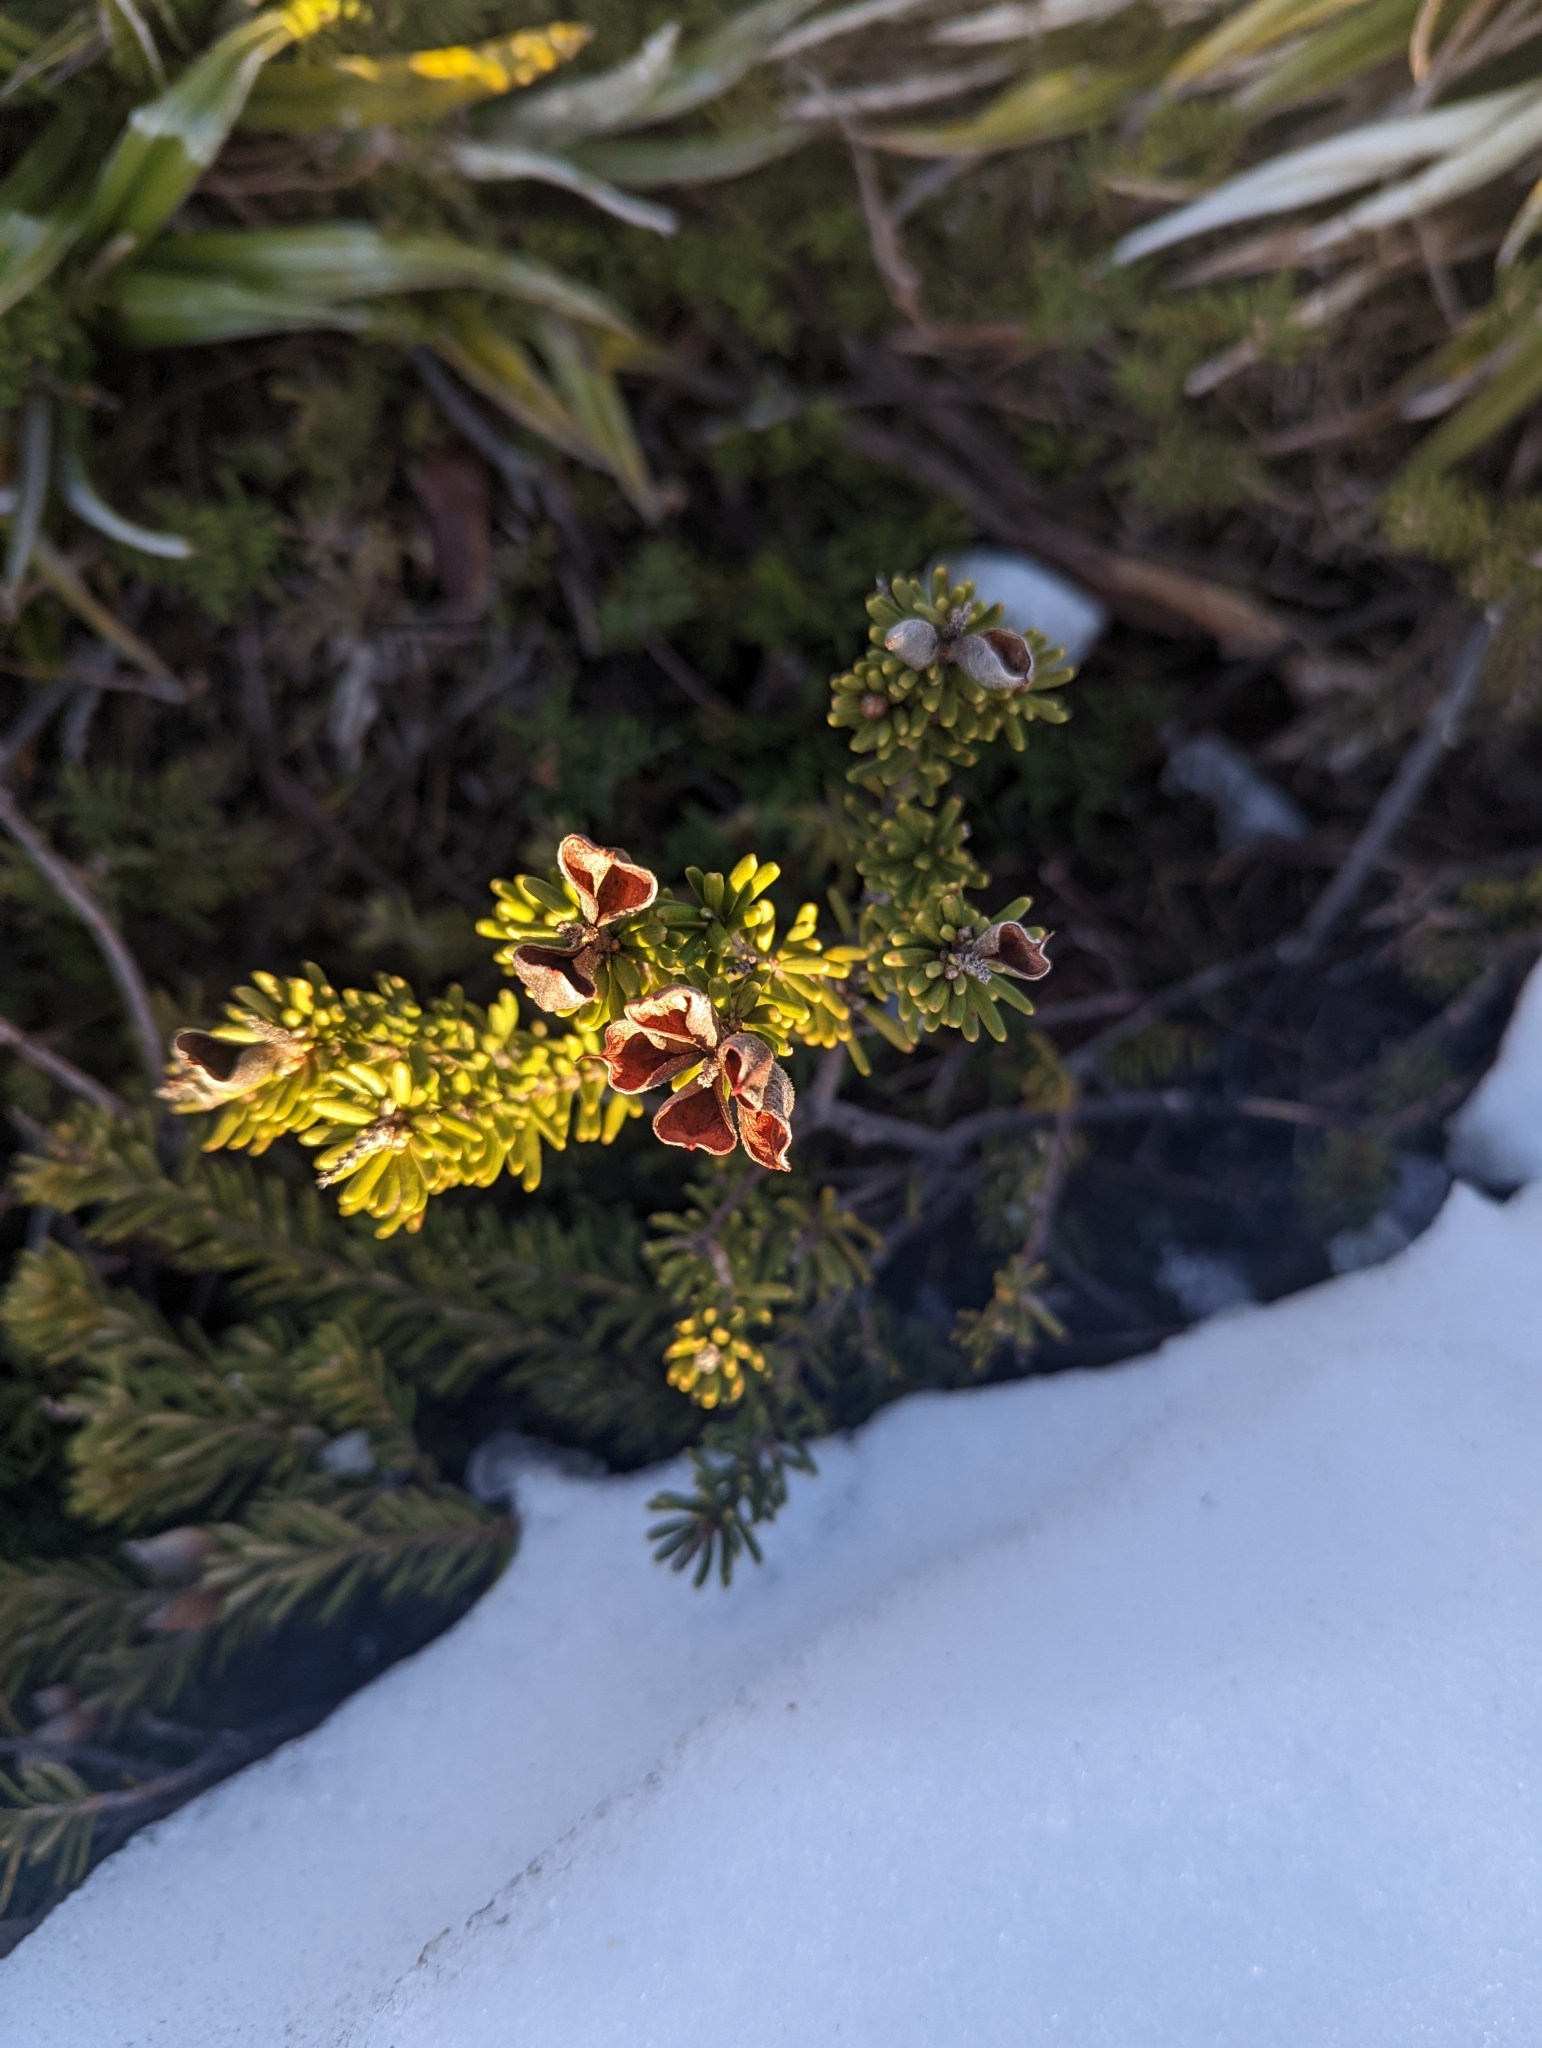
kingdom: Plantae
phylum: Tracheophyta
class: Magnoliopsida
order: Proteales
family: Proteaceae
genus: Orites
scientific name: Orites revolutus
